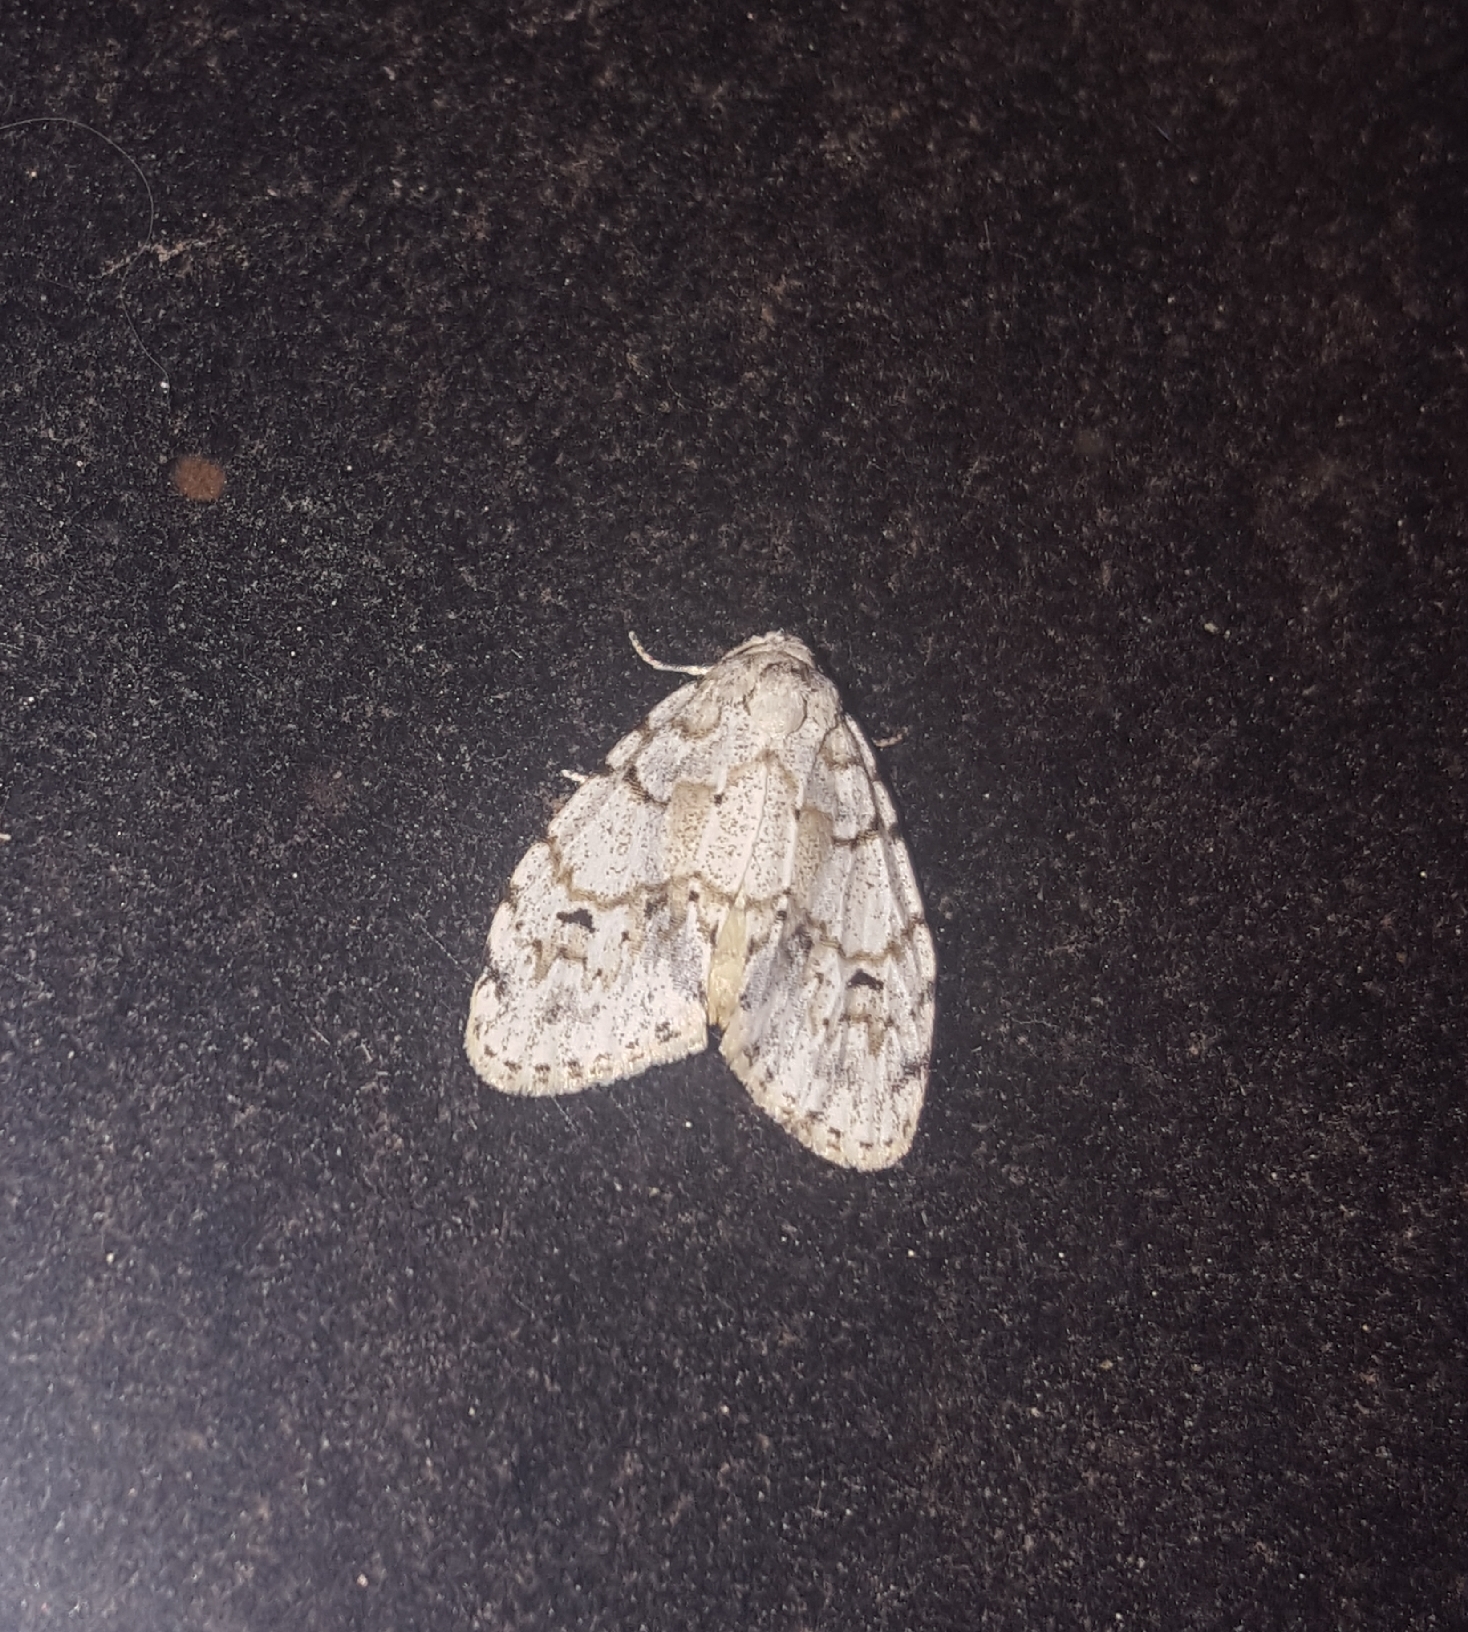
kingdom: Animalia
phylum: Arthropoda
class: Insecta
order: Lepidoptera
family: Erebidae
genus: Clemensia
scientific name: Clemensia albata
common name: Little white lichen moth
